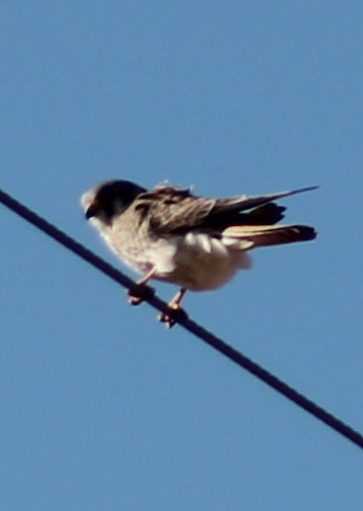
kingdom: Animalia
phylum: Chordata
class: Aves
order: Falconiformes
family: Falconidae
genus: Falco
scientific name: Falco sparverius
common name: American kestrel
